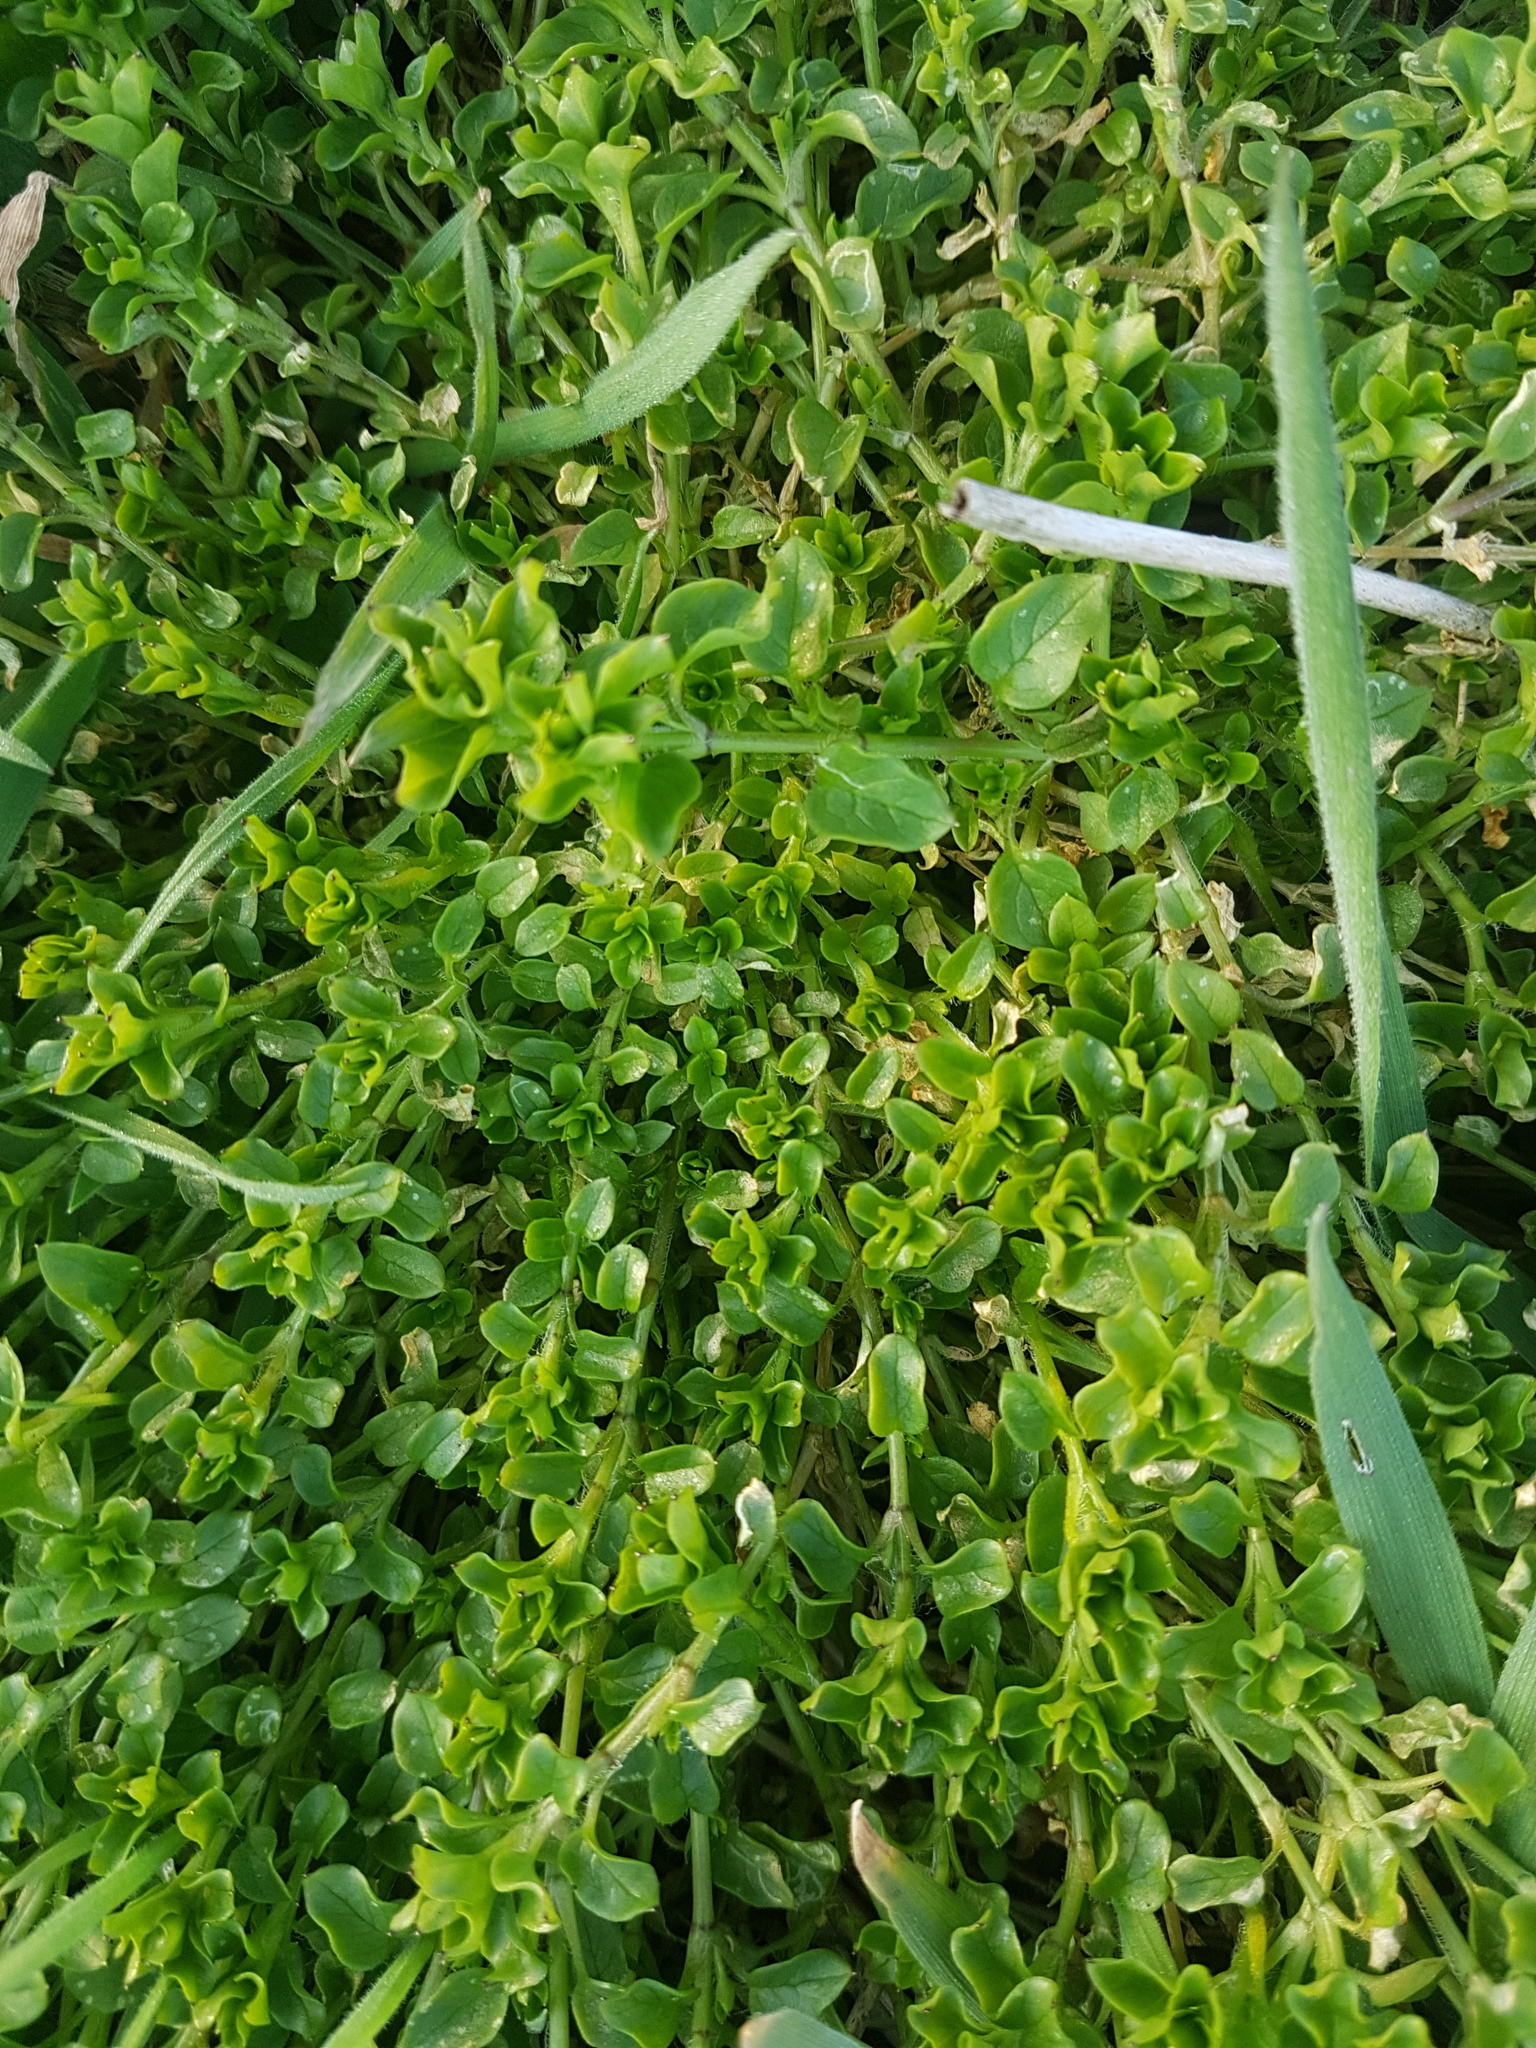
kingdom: Plantae
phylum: Tracheophyta
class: Magnoliopsida
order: Caryophyllales
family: Caryophyllaceae
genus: Stellaria
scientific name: Stellaria media
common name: Common chickweed
